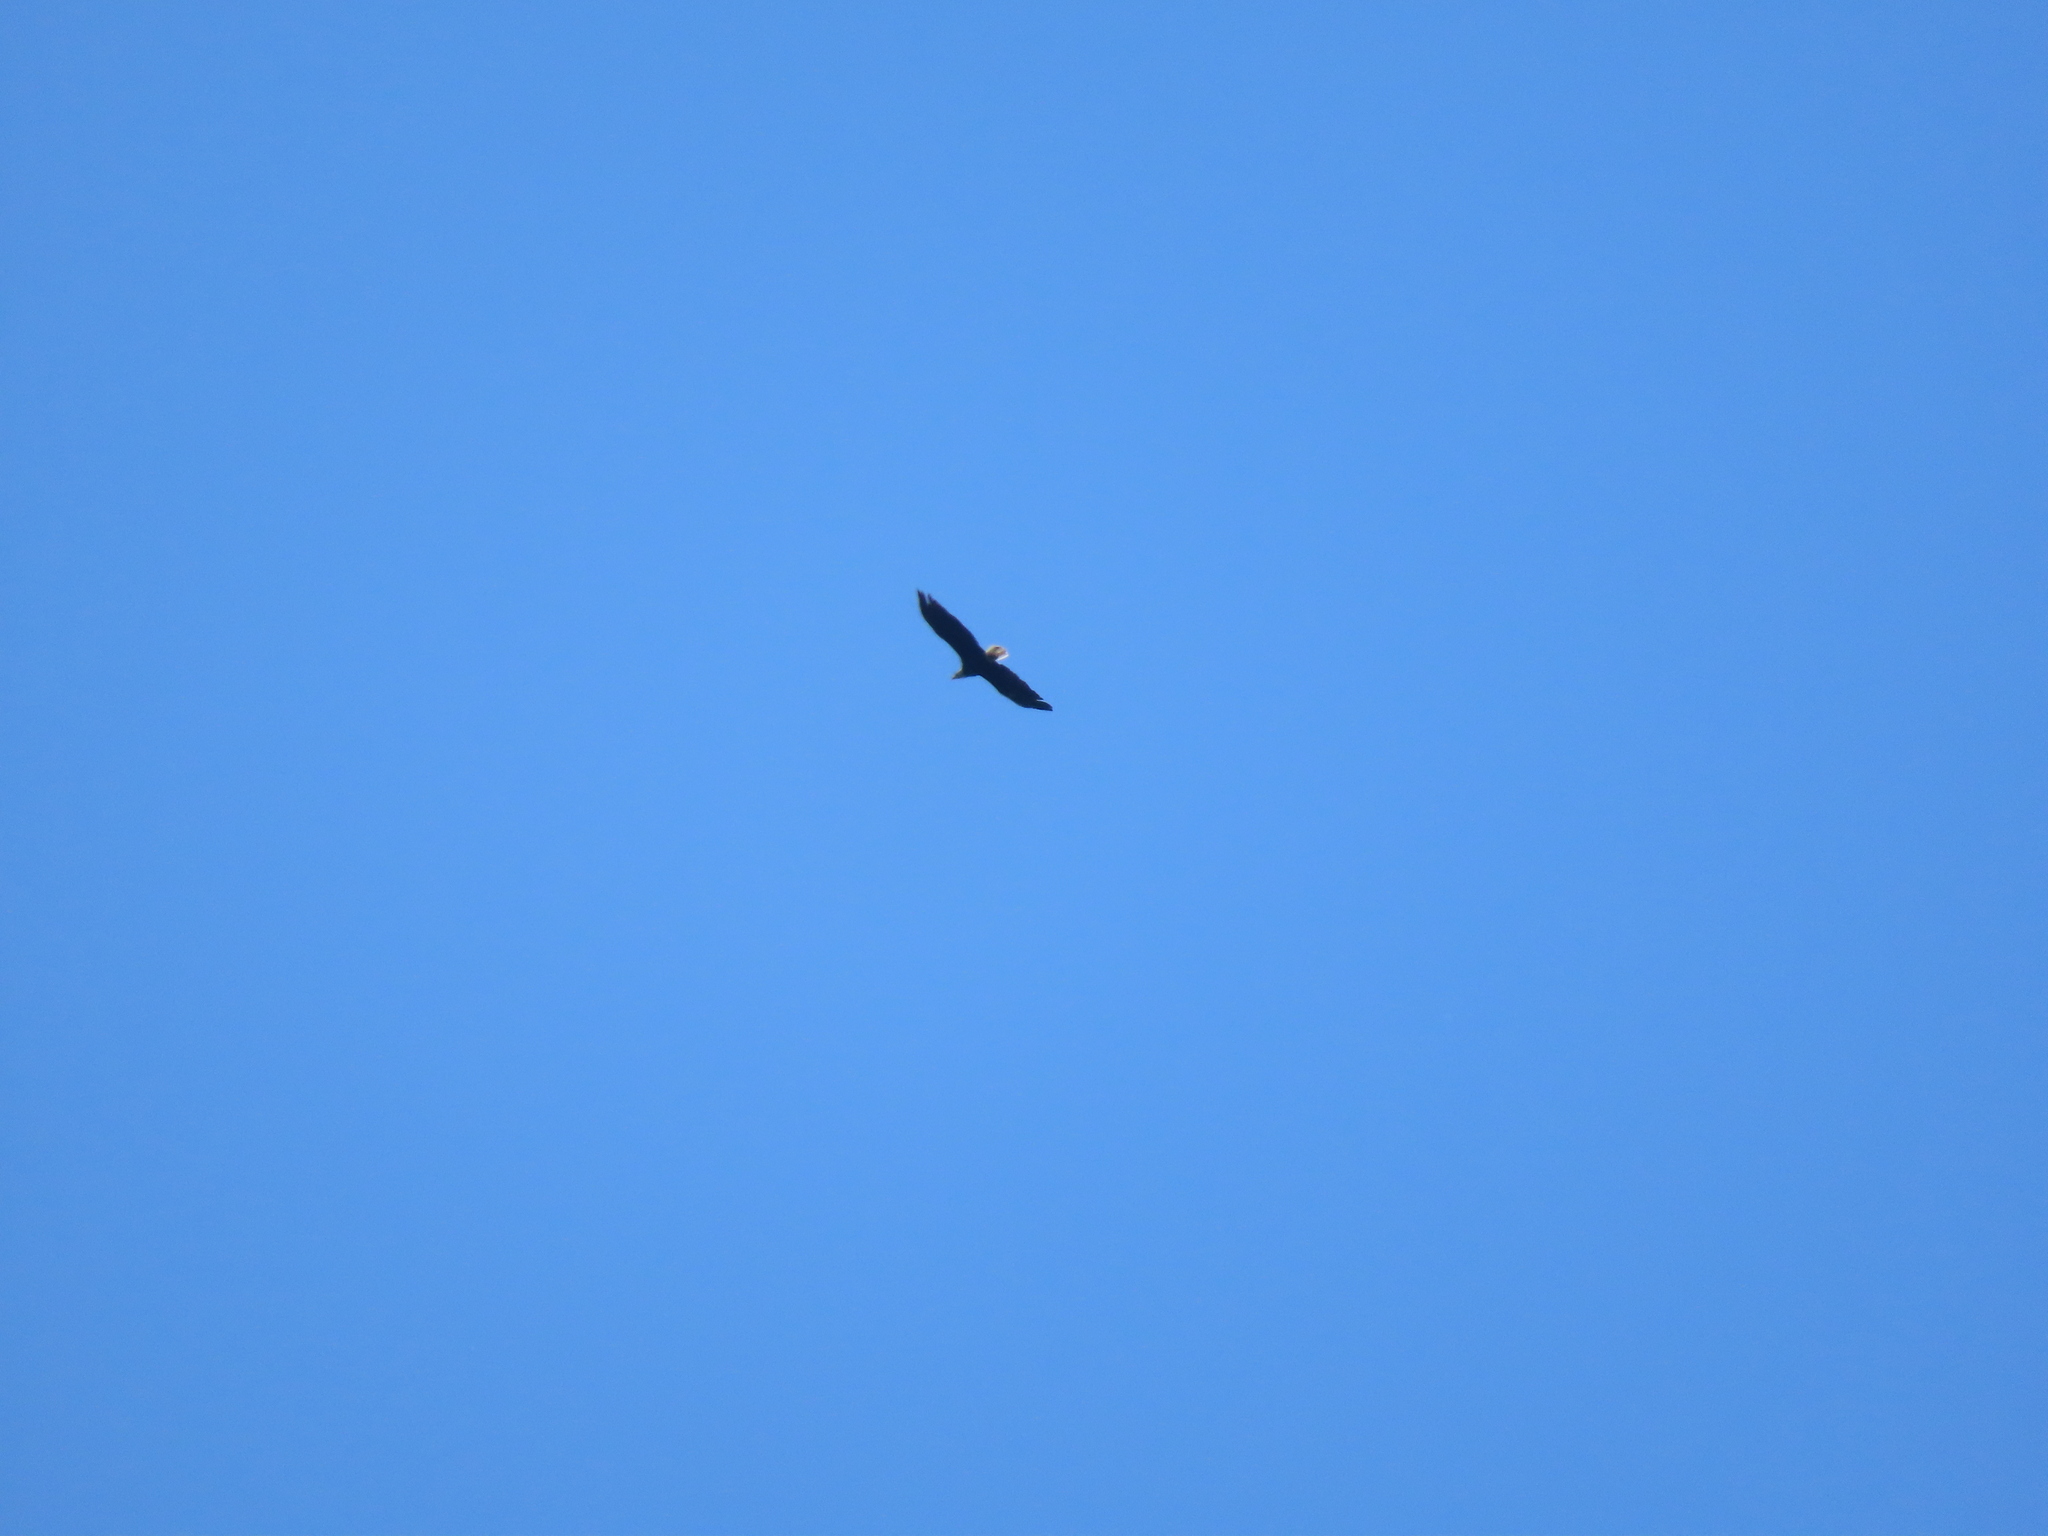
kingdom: Animalia
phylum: Chordata
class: Aves
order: Accipitriformes
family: Accipitridae
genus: Haliaeetus
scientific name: Haliaeetus leucocephalus
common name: Bald eagle
